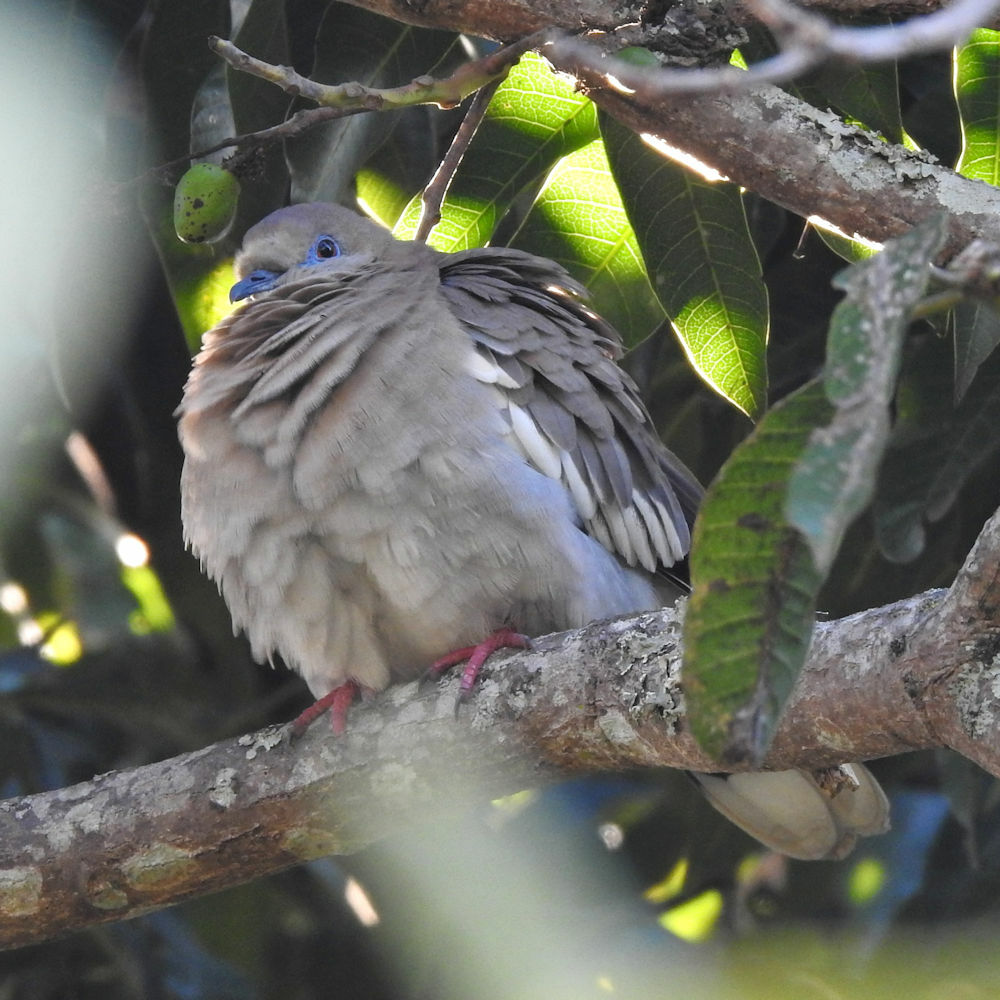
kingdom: Animalia
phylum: Chordata
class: Aves
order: Columbiformes
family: Columbidae
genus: Zenaida
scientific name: Zenaida asiatica
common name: White-winged dove
